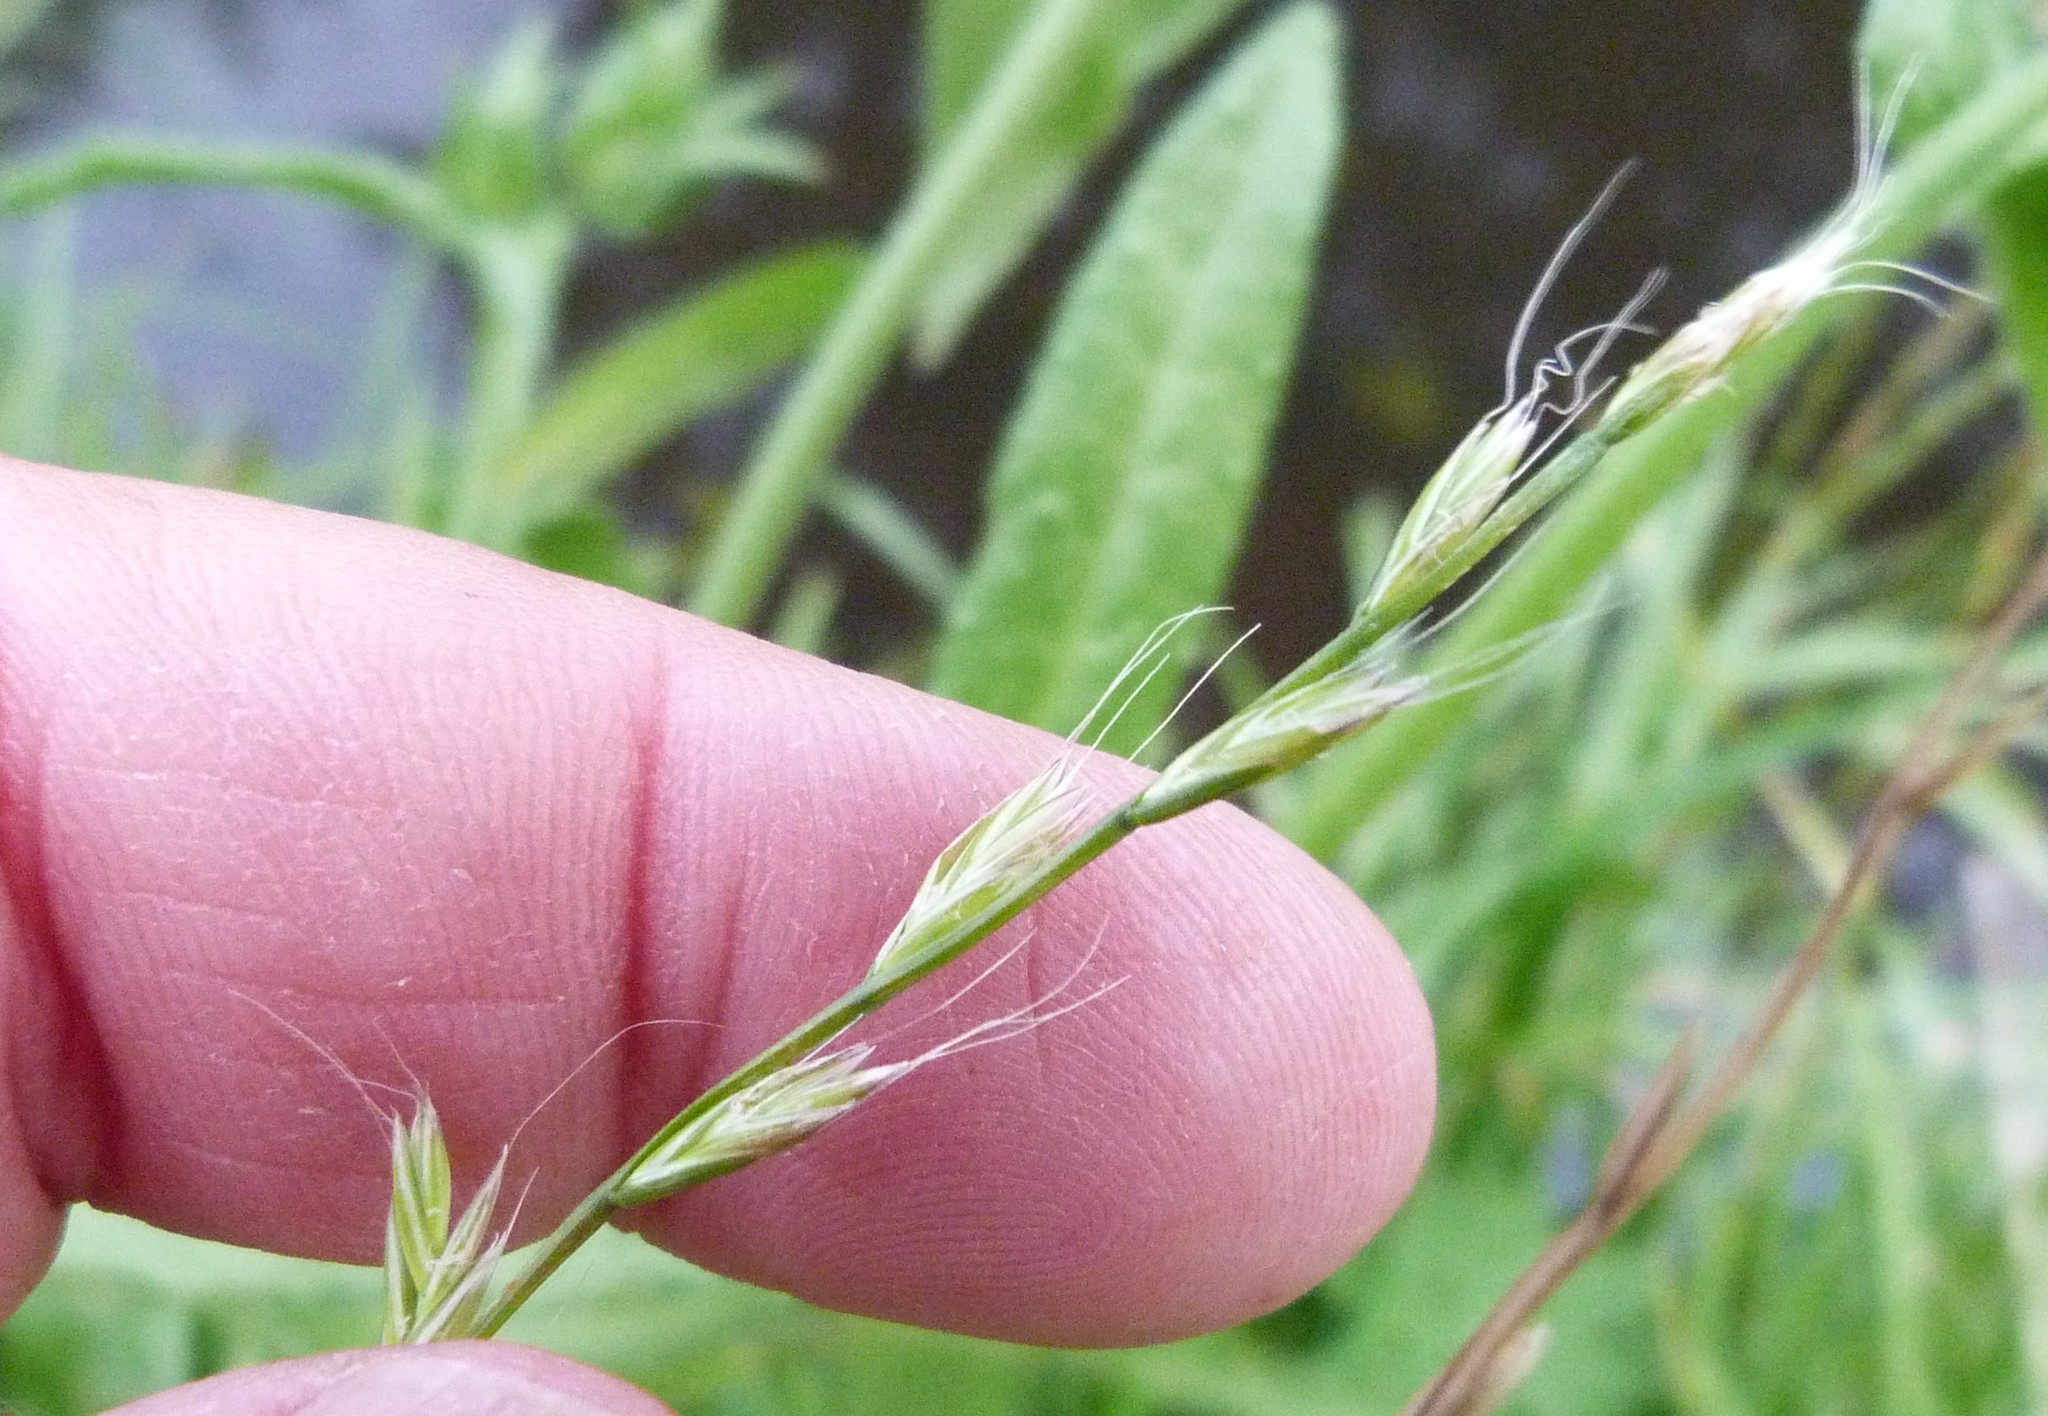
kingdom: Plantae
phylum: Tracheophyta
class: Liliopsida
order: Poales
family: Poaceae
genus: Lolium
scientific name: Lolium multiflorum
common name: Annual ryegrass
